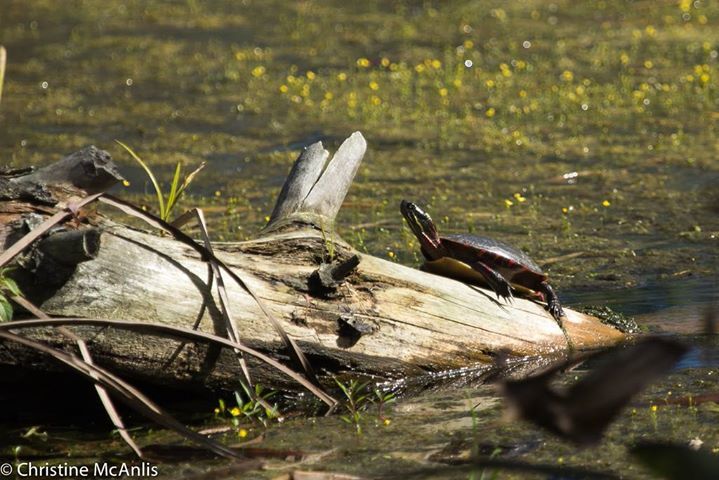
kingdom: Animalia
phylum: Chordata
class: Testudines
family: Emydidae
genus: Chrysemys
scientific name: Chrysemys picta
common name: Painted turtle
